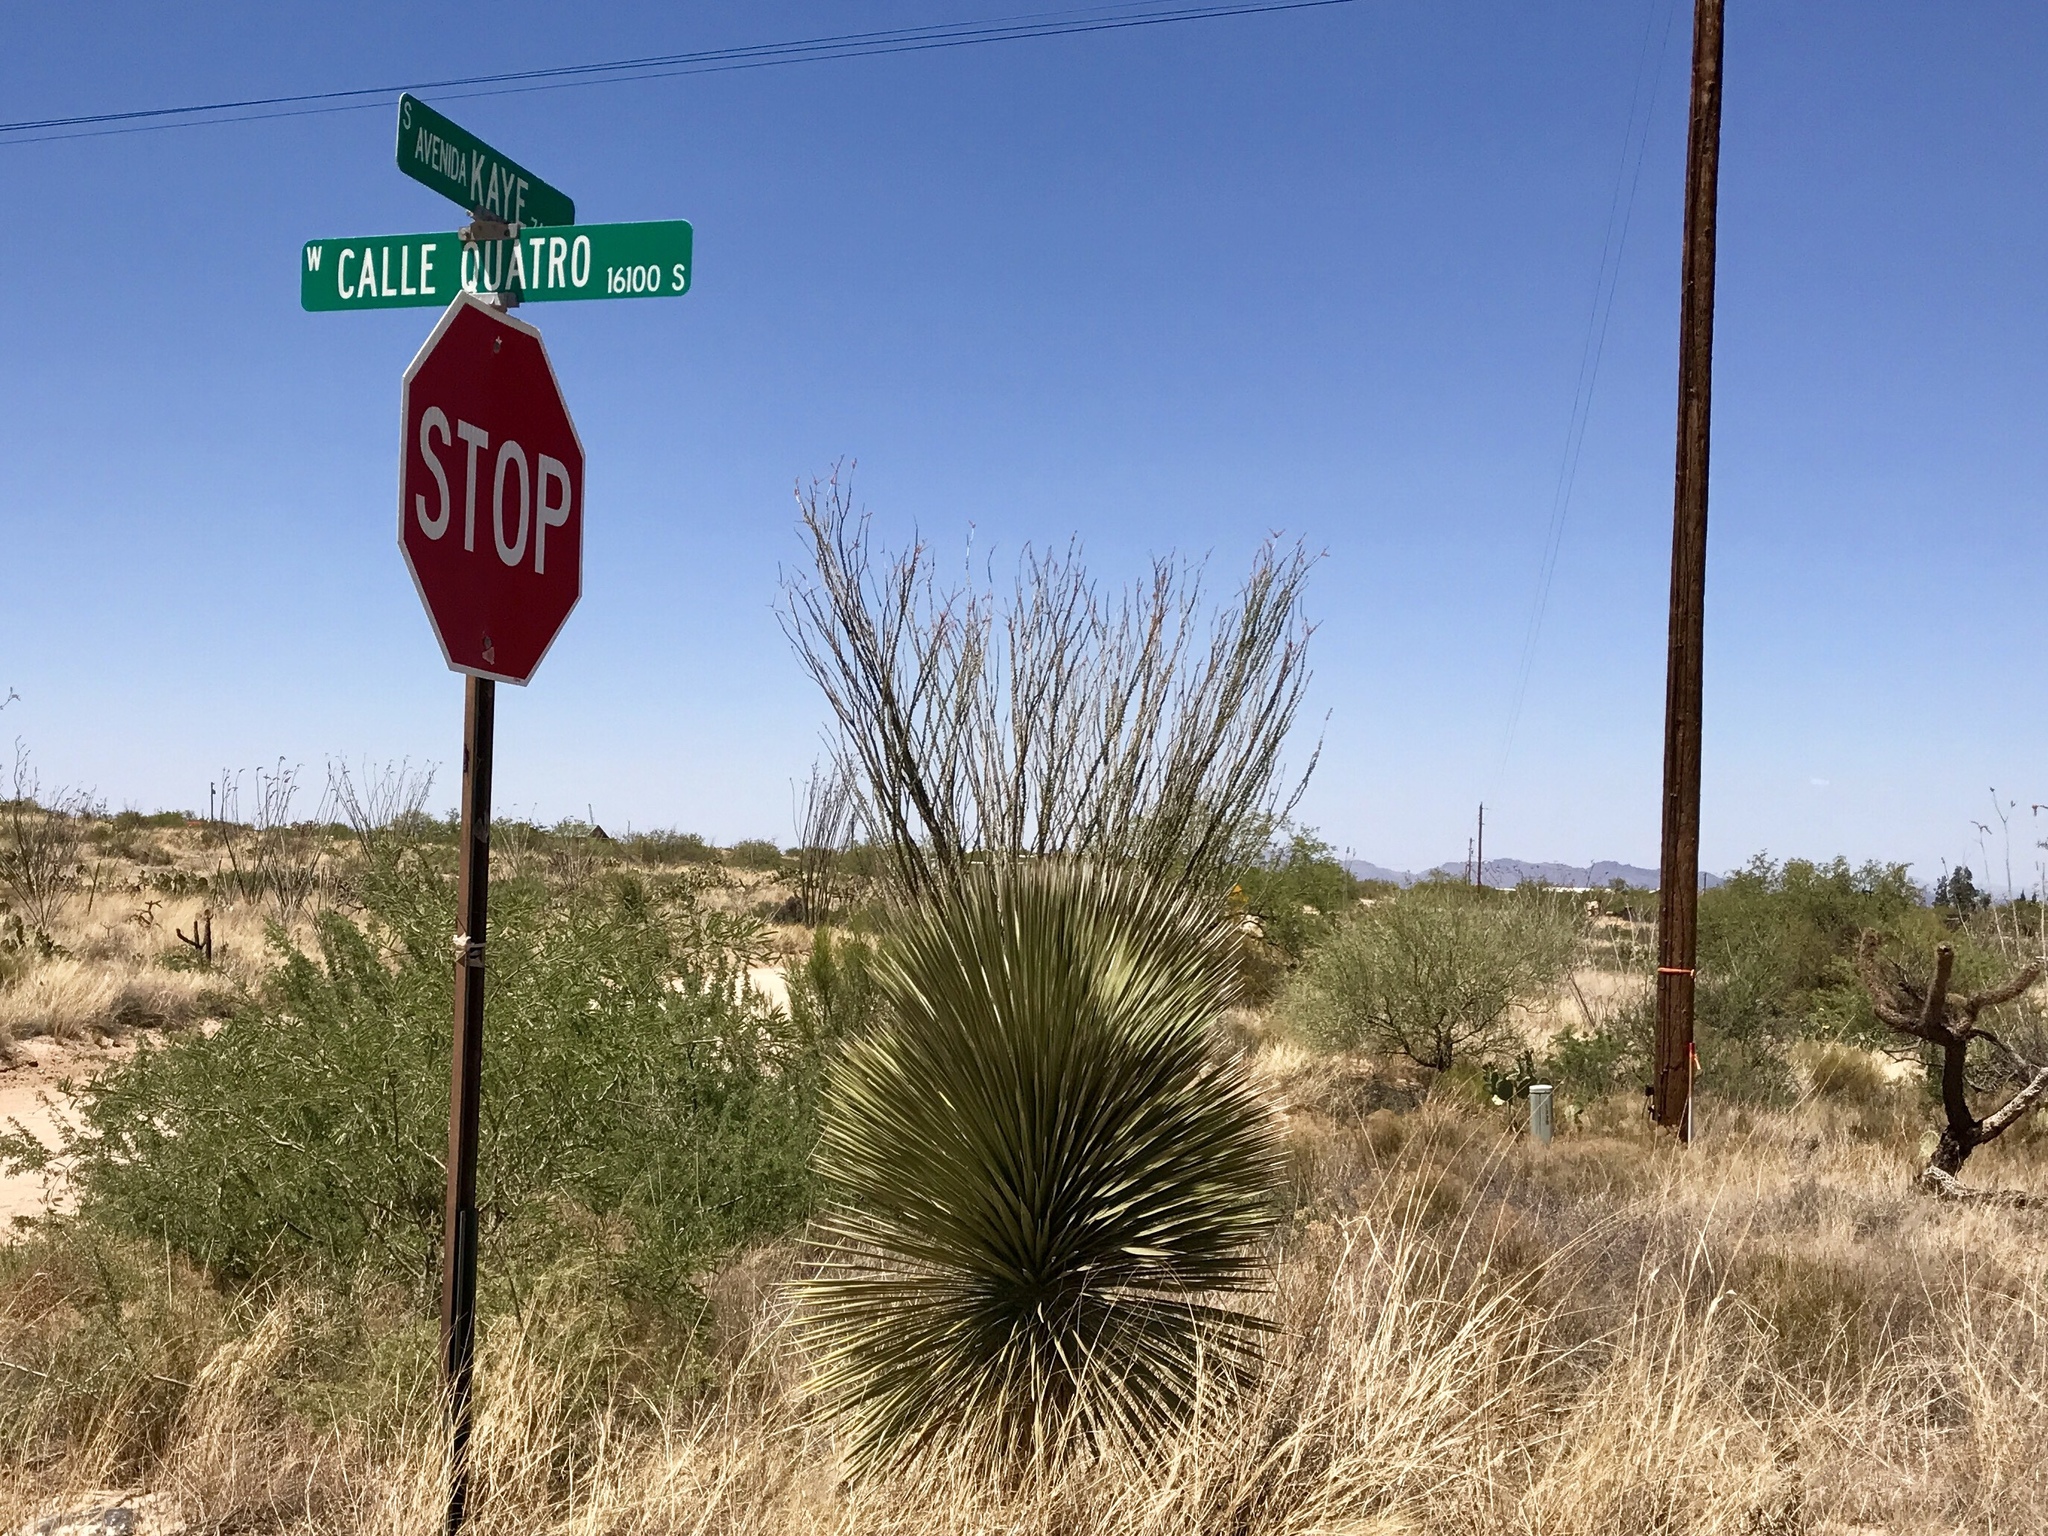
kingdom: Plantae
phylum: Tracheophyta
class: Liliopsida
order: Asparagales
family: Asparagaceae
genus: Yucca
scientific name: Yucca elata
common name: Palmella
